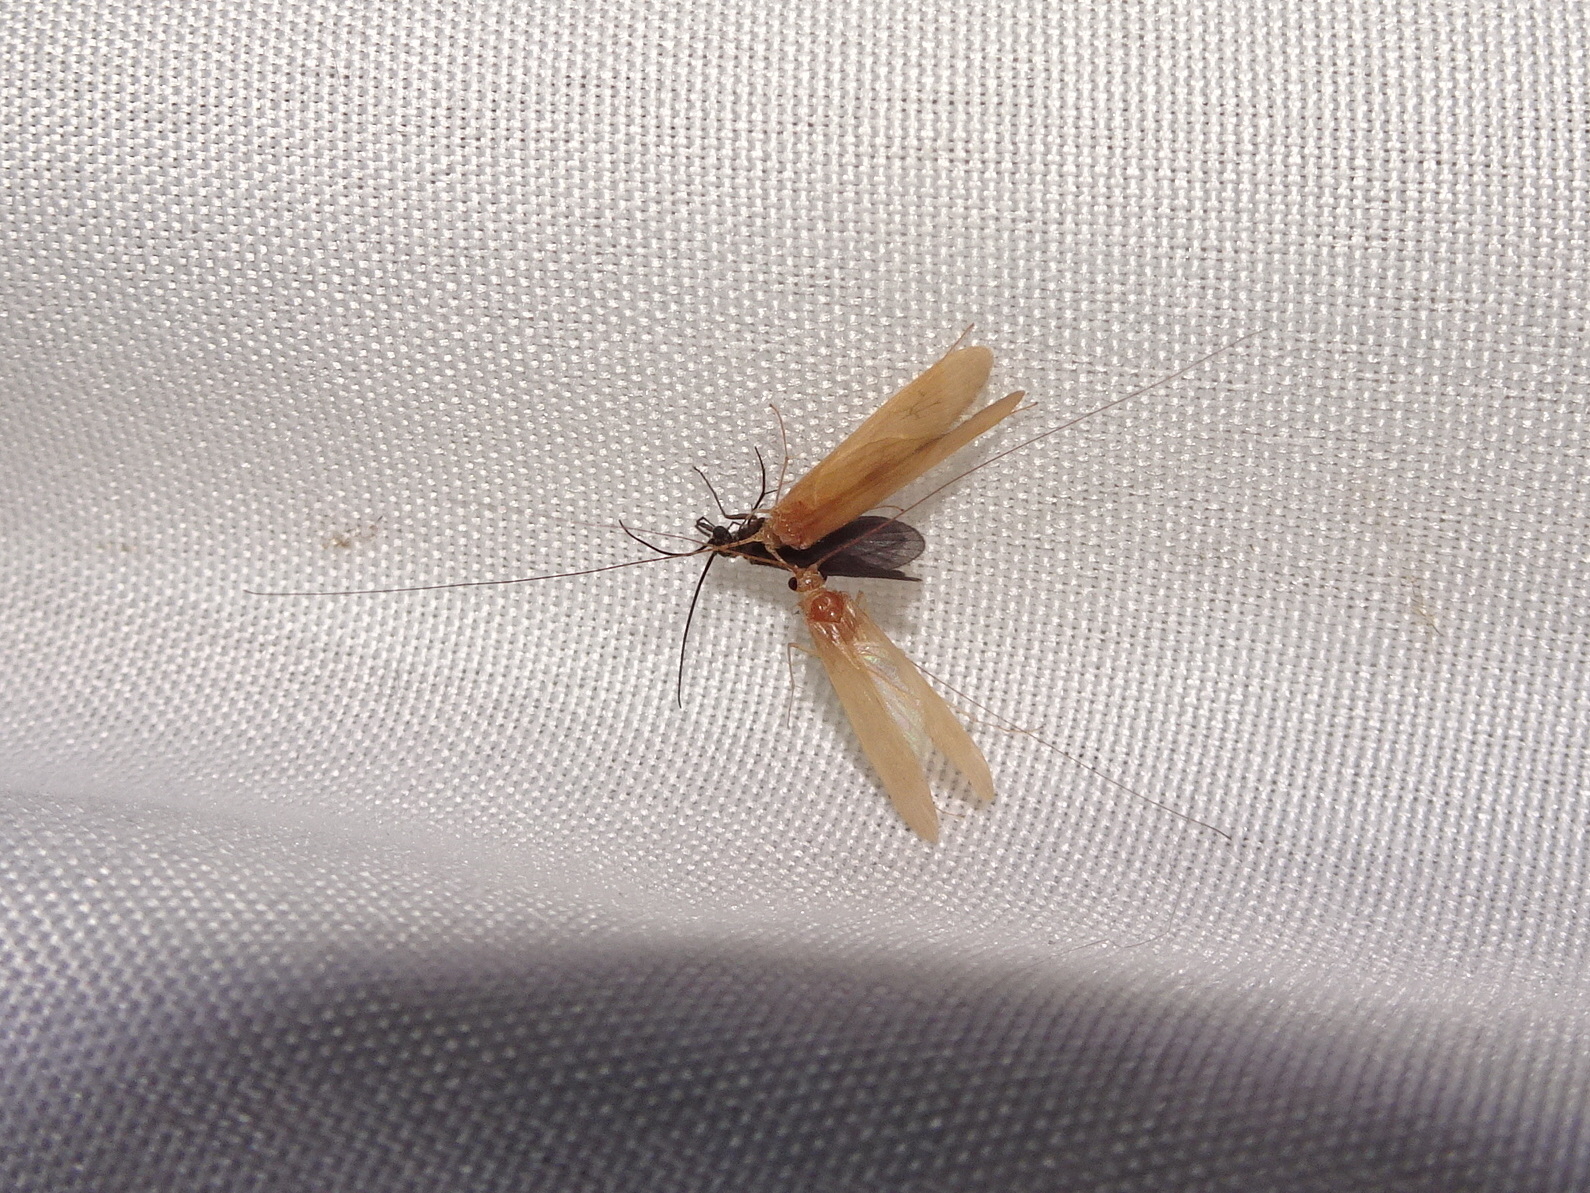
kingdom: Animalia
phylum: Arthropoda
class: Insecta
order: Trichoptera
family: Hydropsychidae
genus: Potamyia
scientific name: Potamyia flava
